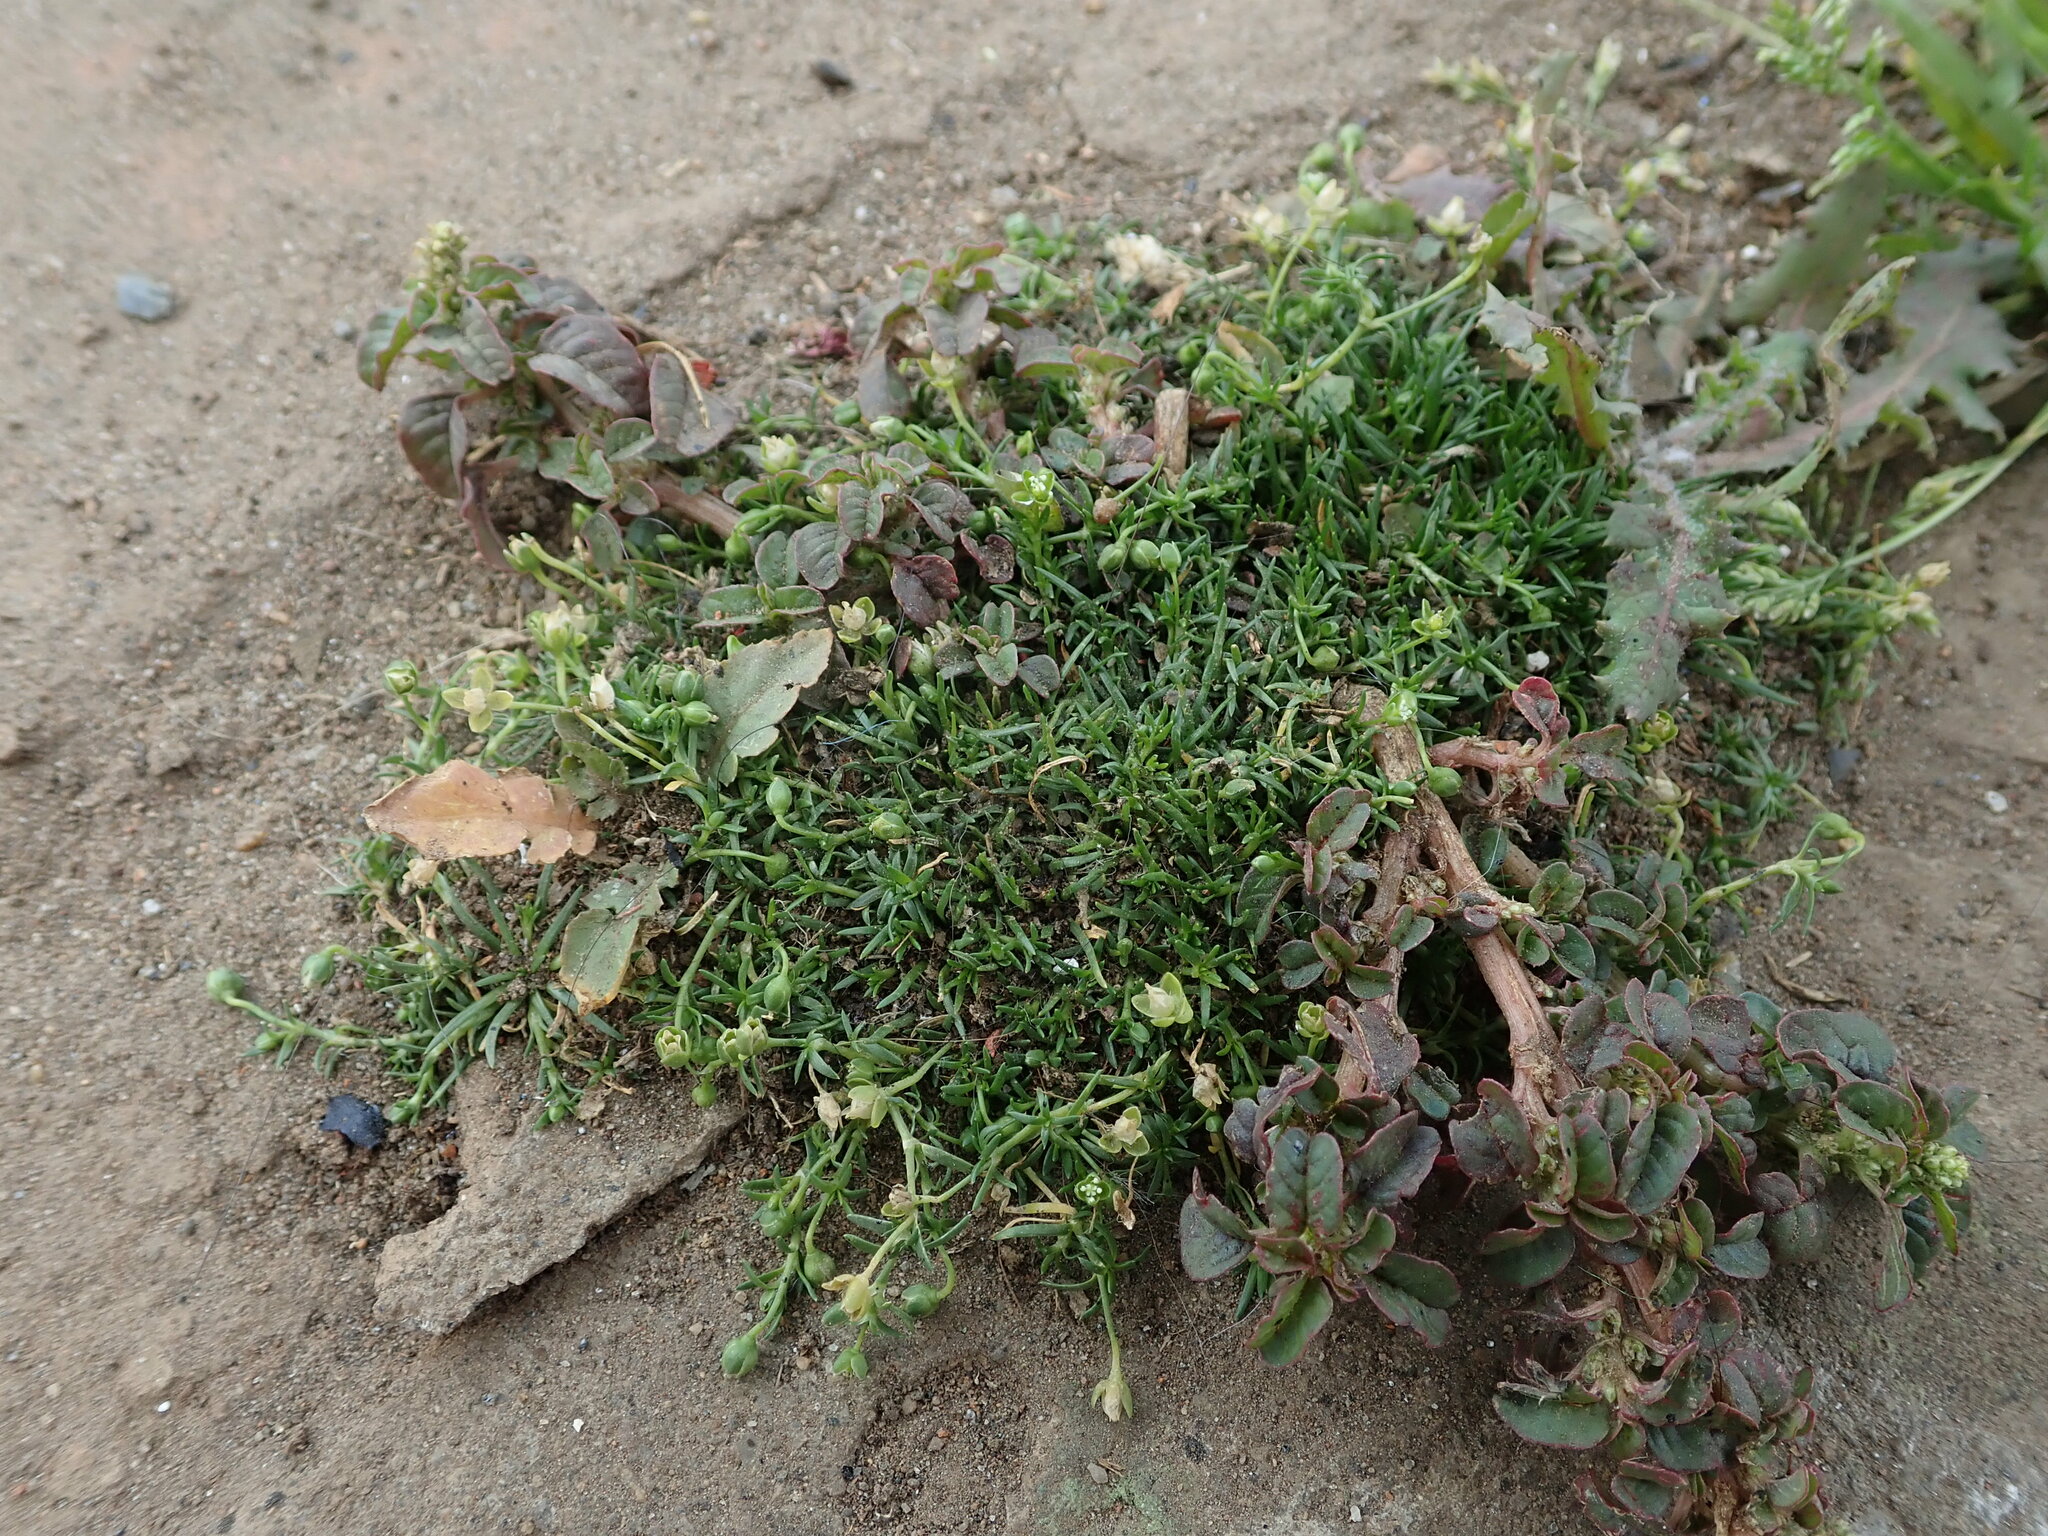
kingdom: Plantae
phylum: Tracheophyta
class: Magnoliopsida
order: Caryophyllales
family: Caryophyllaceae
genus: Sagina
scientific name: Sagina procumbens
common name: Procumbent pearlwort
